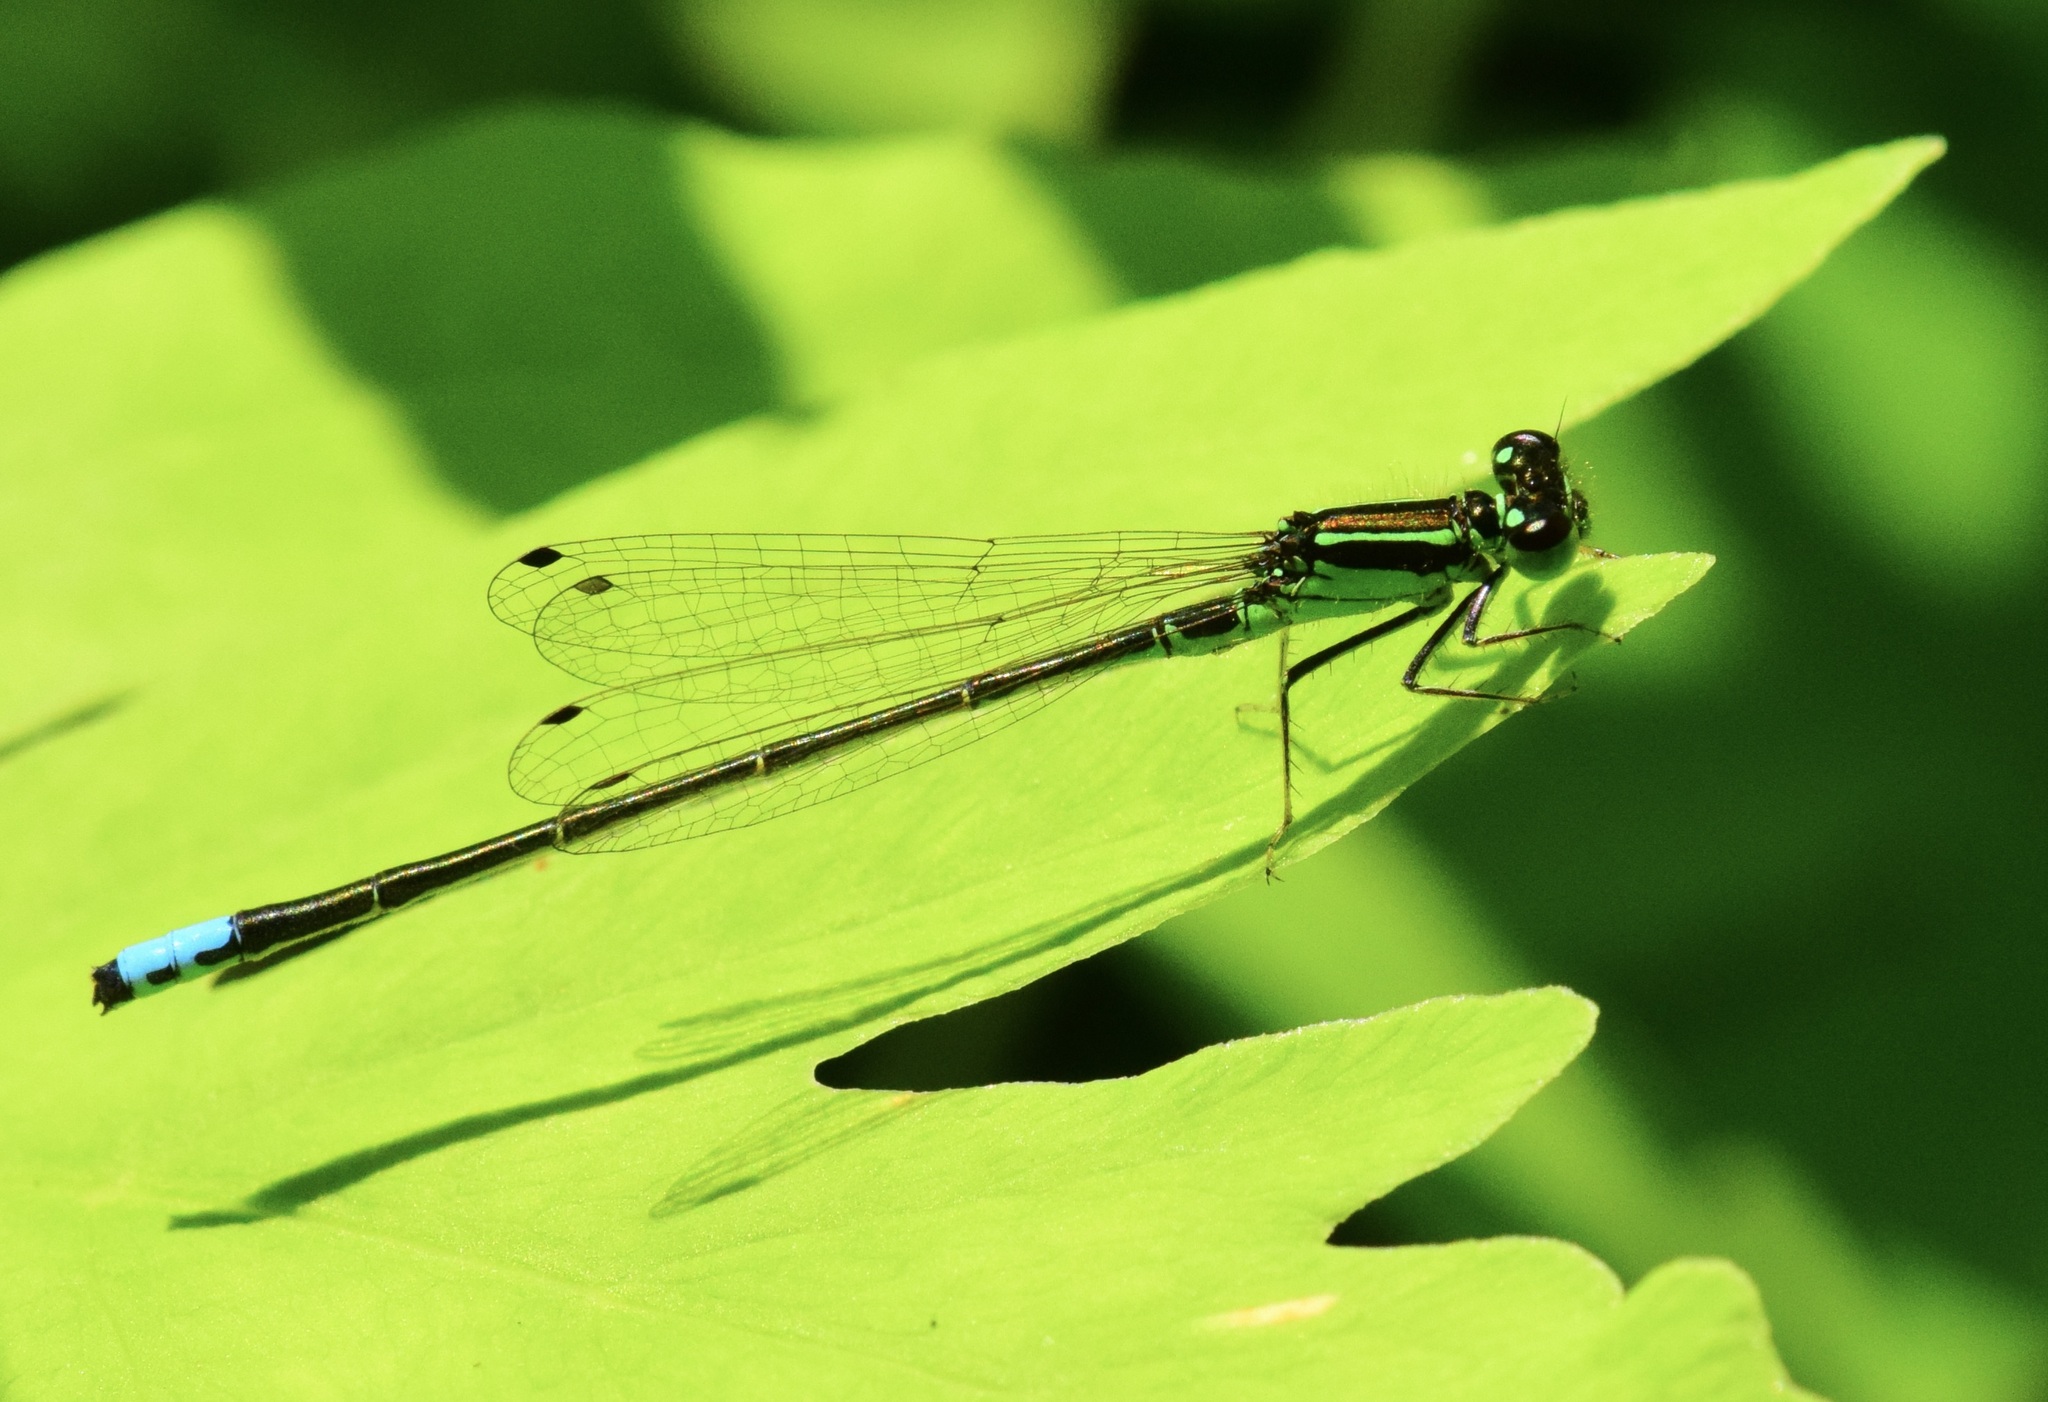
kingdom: Animalia
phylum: Arthropoda
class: Insecta
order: Odonata
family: Coenagrionidae
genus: Ischnura
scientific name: Ischnura verticalis
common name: Eastern forktail
